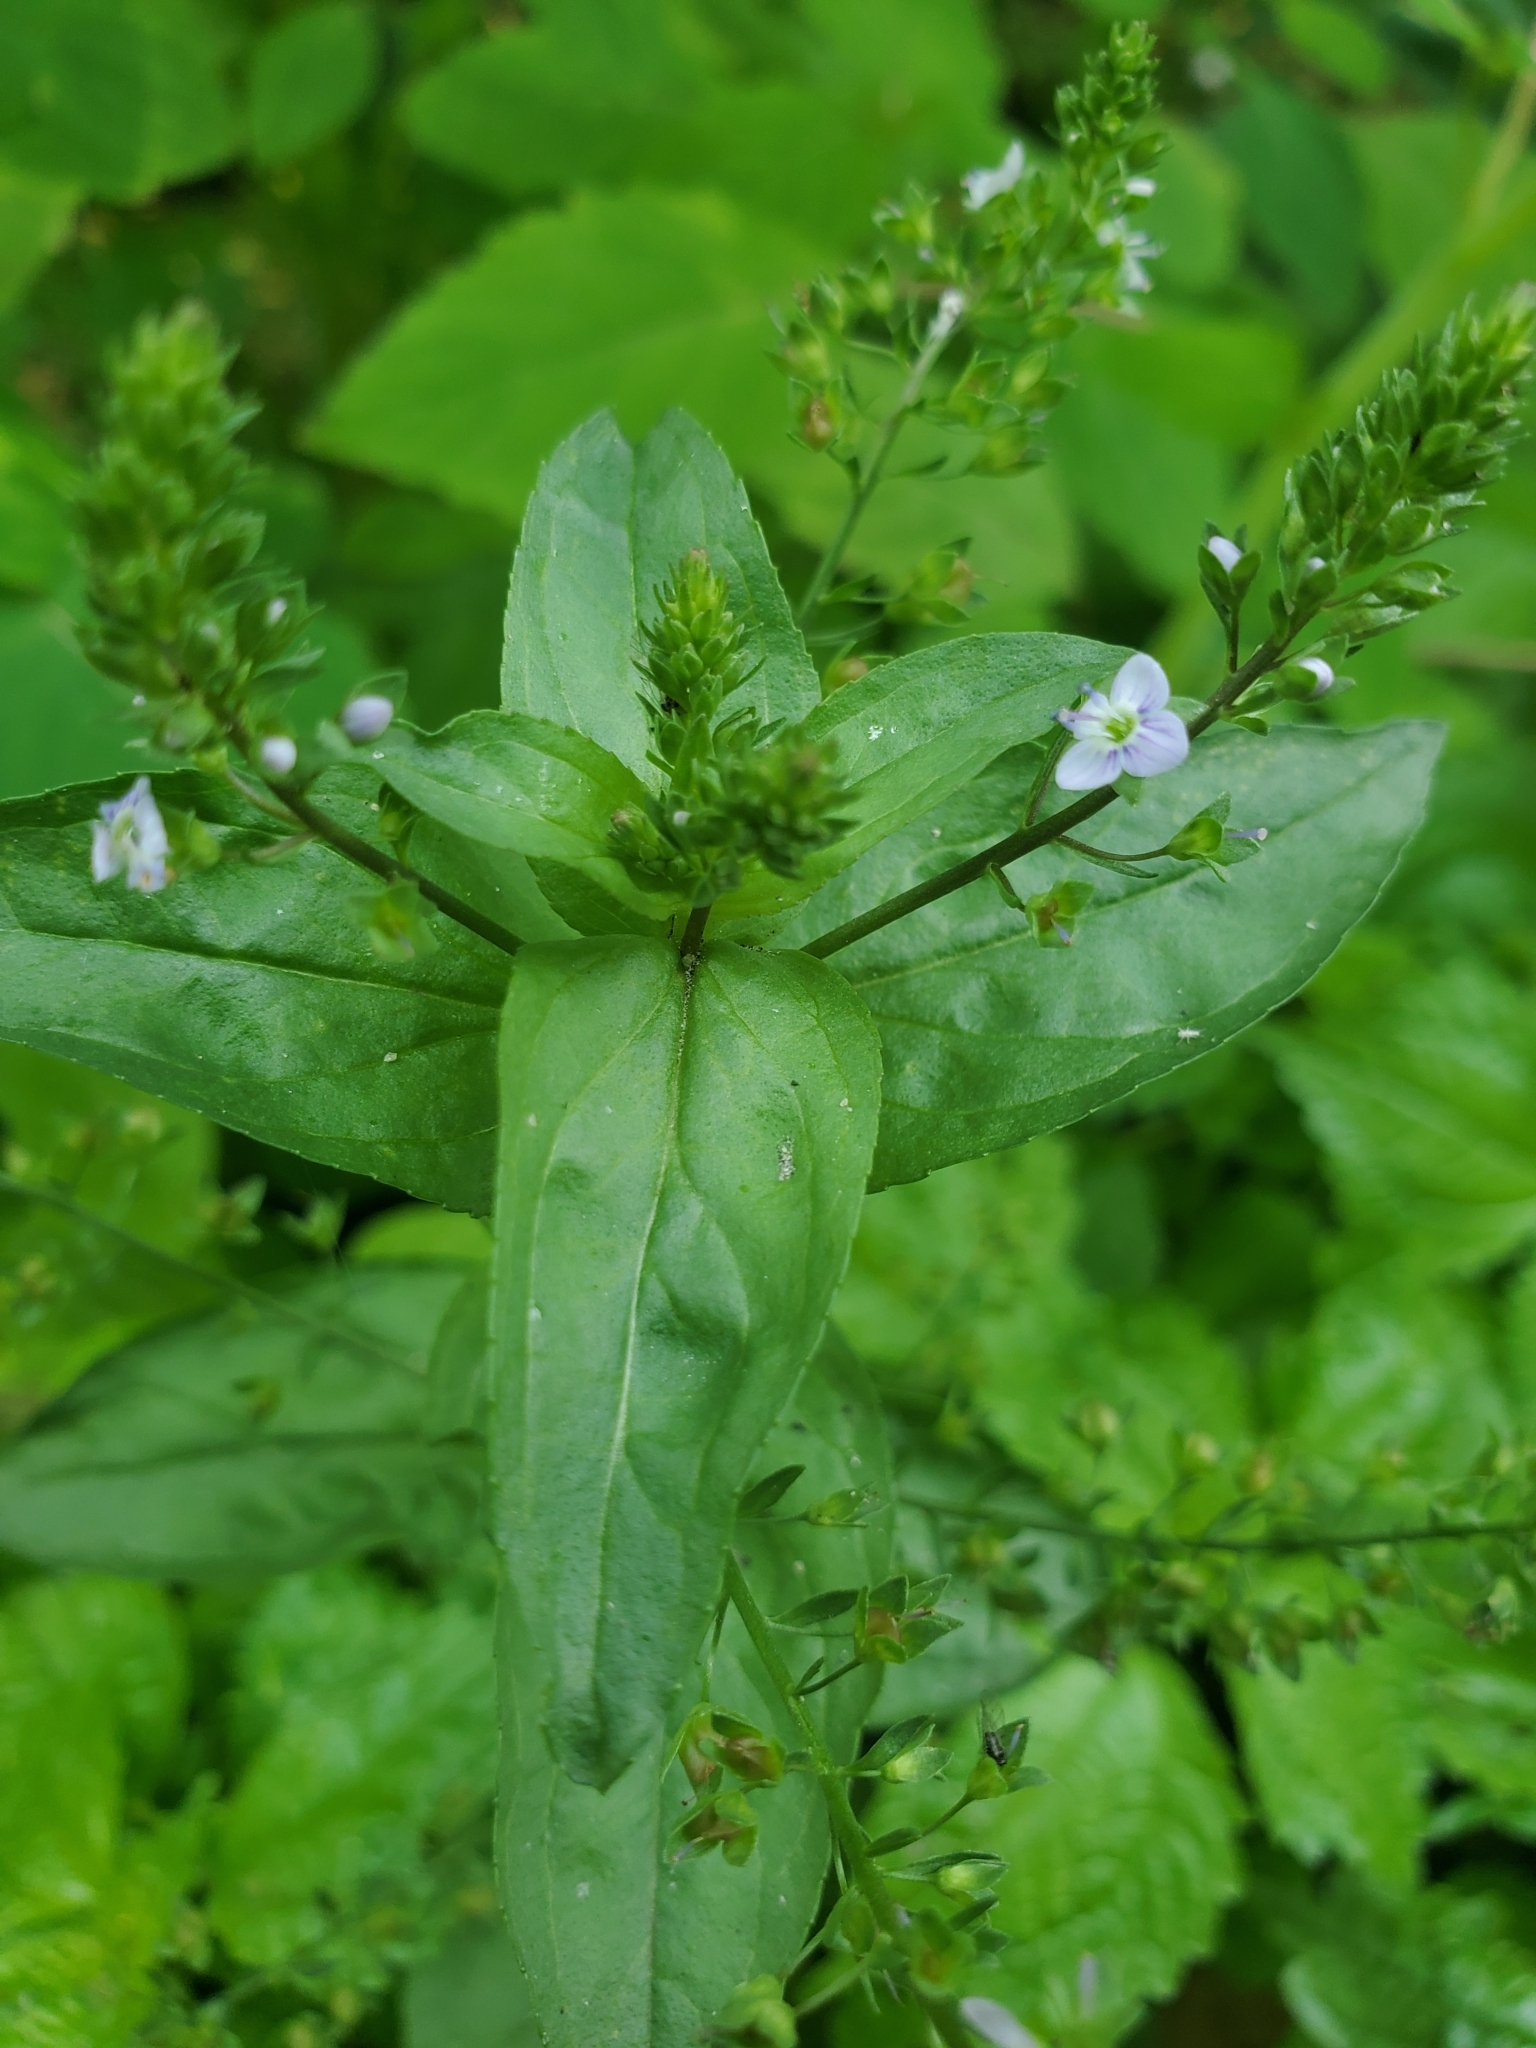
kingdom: Plantae
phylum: Tracheophyta
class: Magnoliopsida
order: Lamiales
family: Plantaginaceae
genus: Veronica
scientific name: Veronica anagallis-aquatica
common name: Water speedwell
